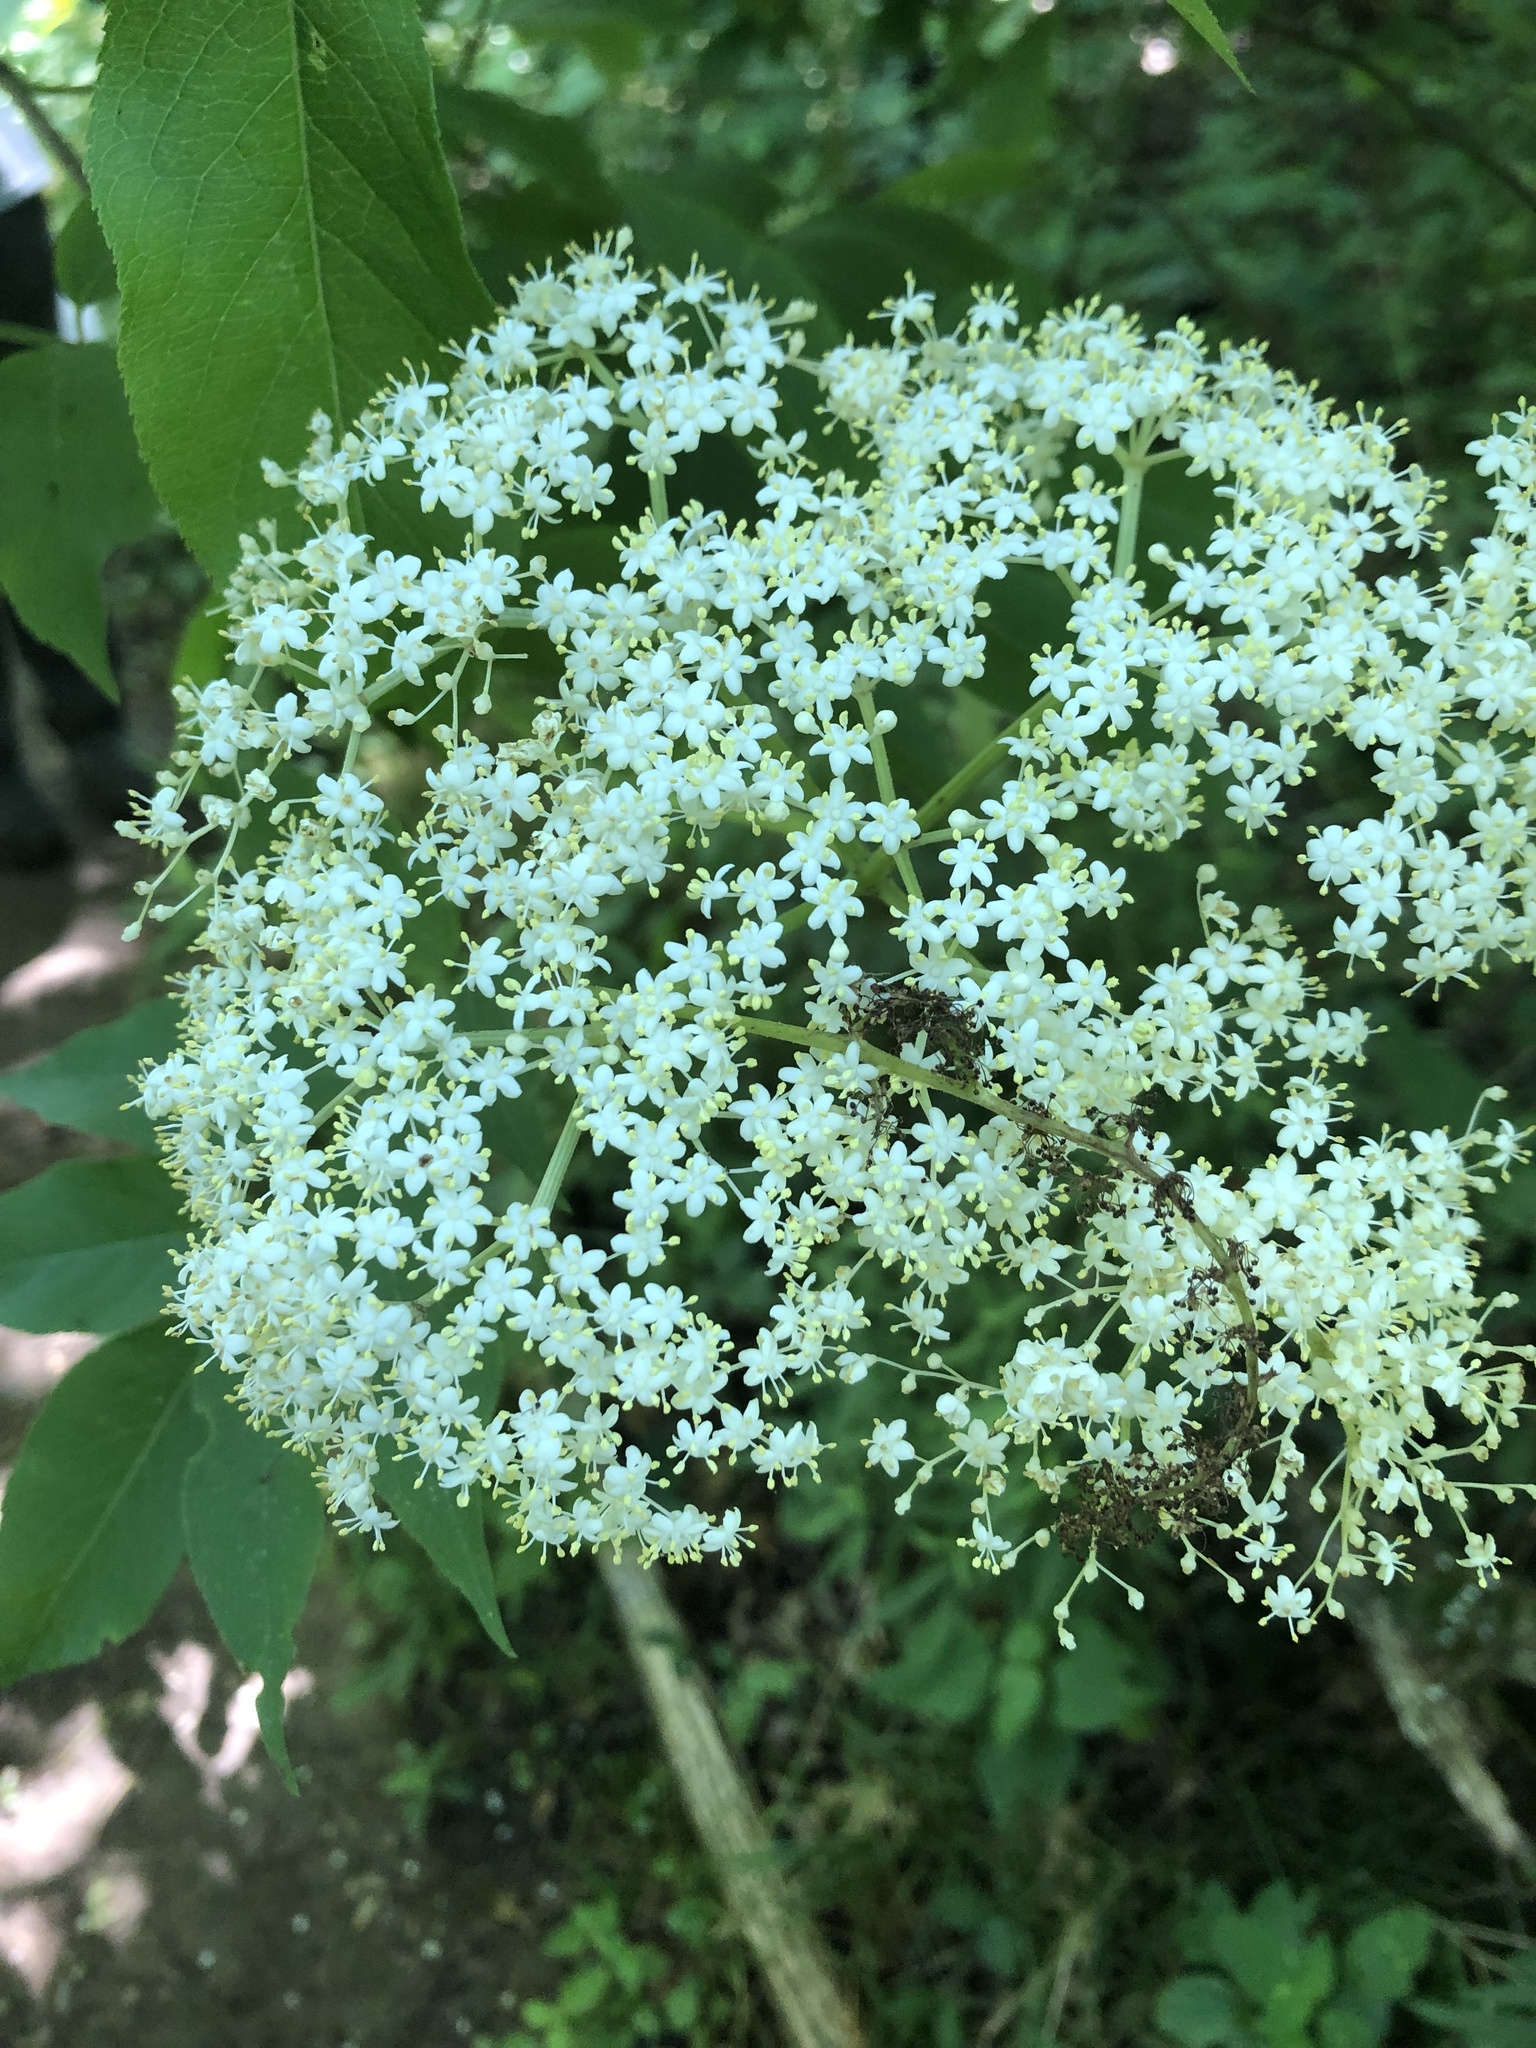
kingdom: Plantae
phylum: Tracheophyta
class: Magnoliopsida
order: Dipsacales
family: Viburnaceae
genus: Sambucus
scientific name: Sambucus canadensis
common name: American elder
